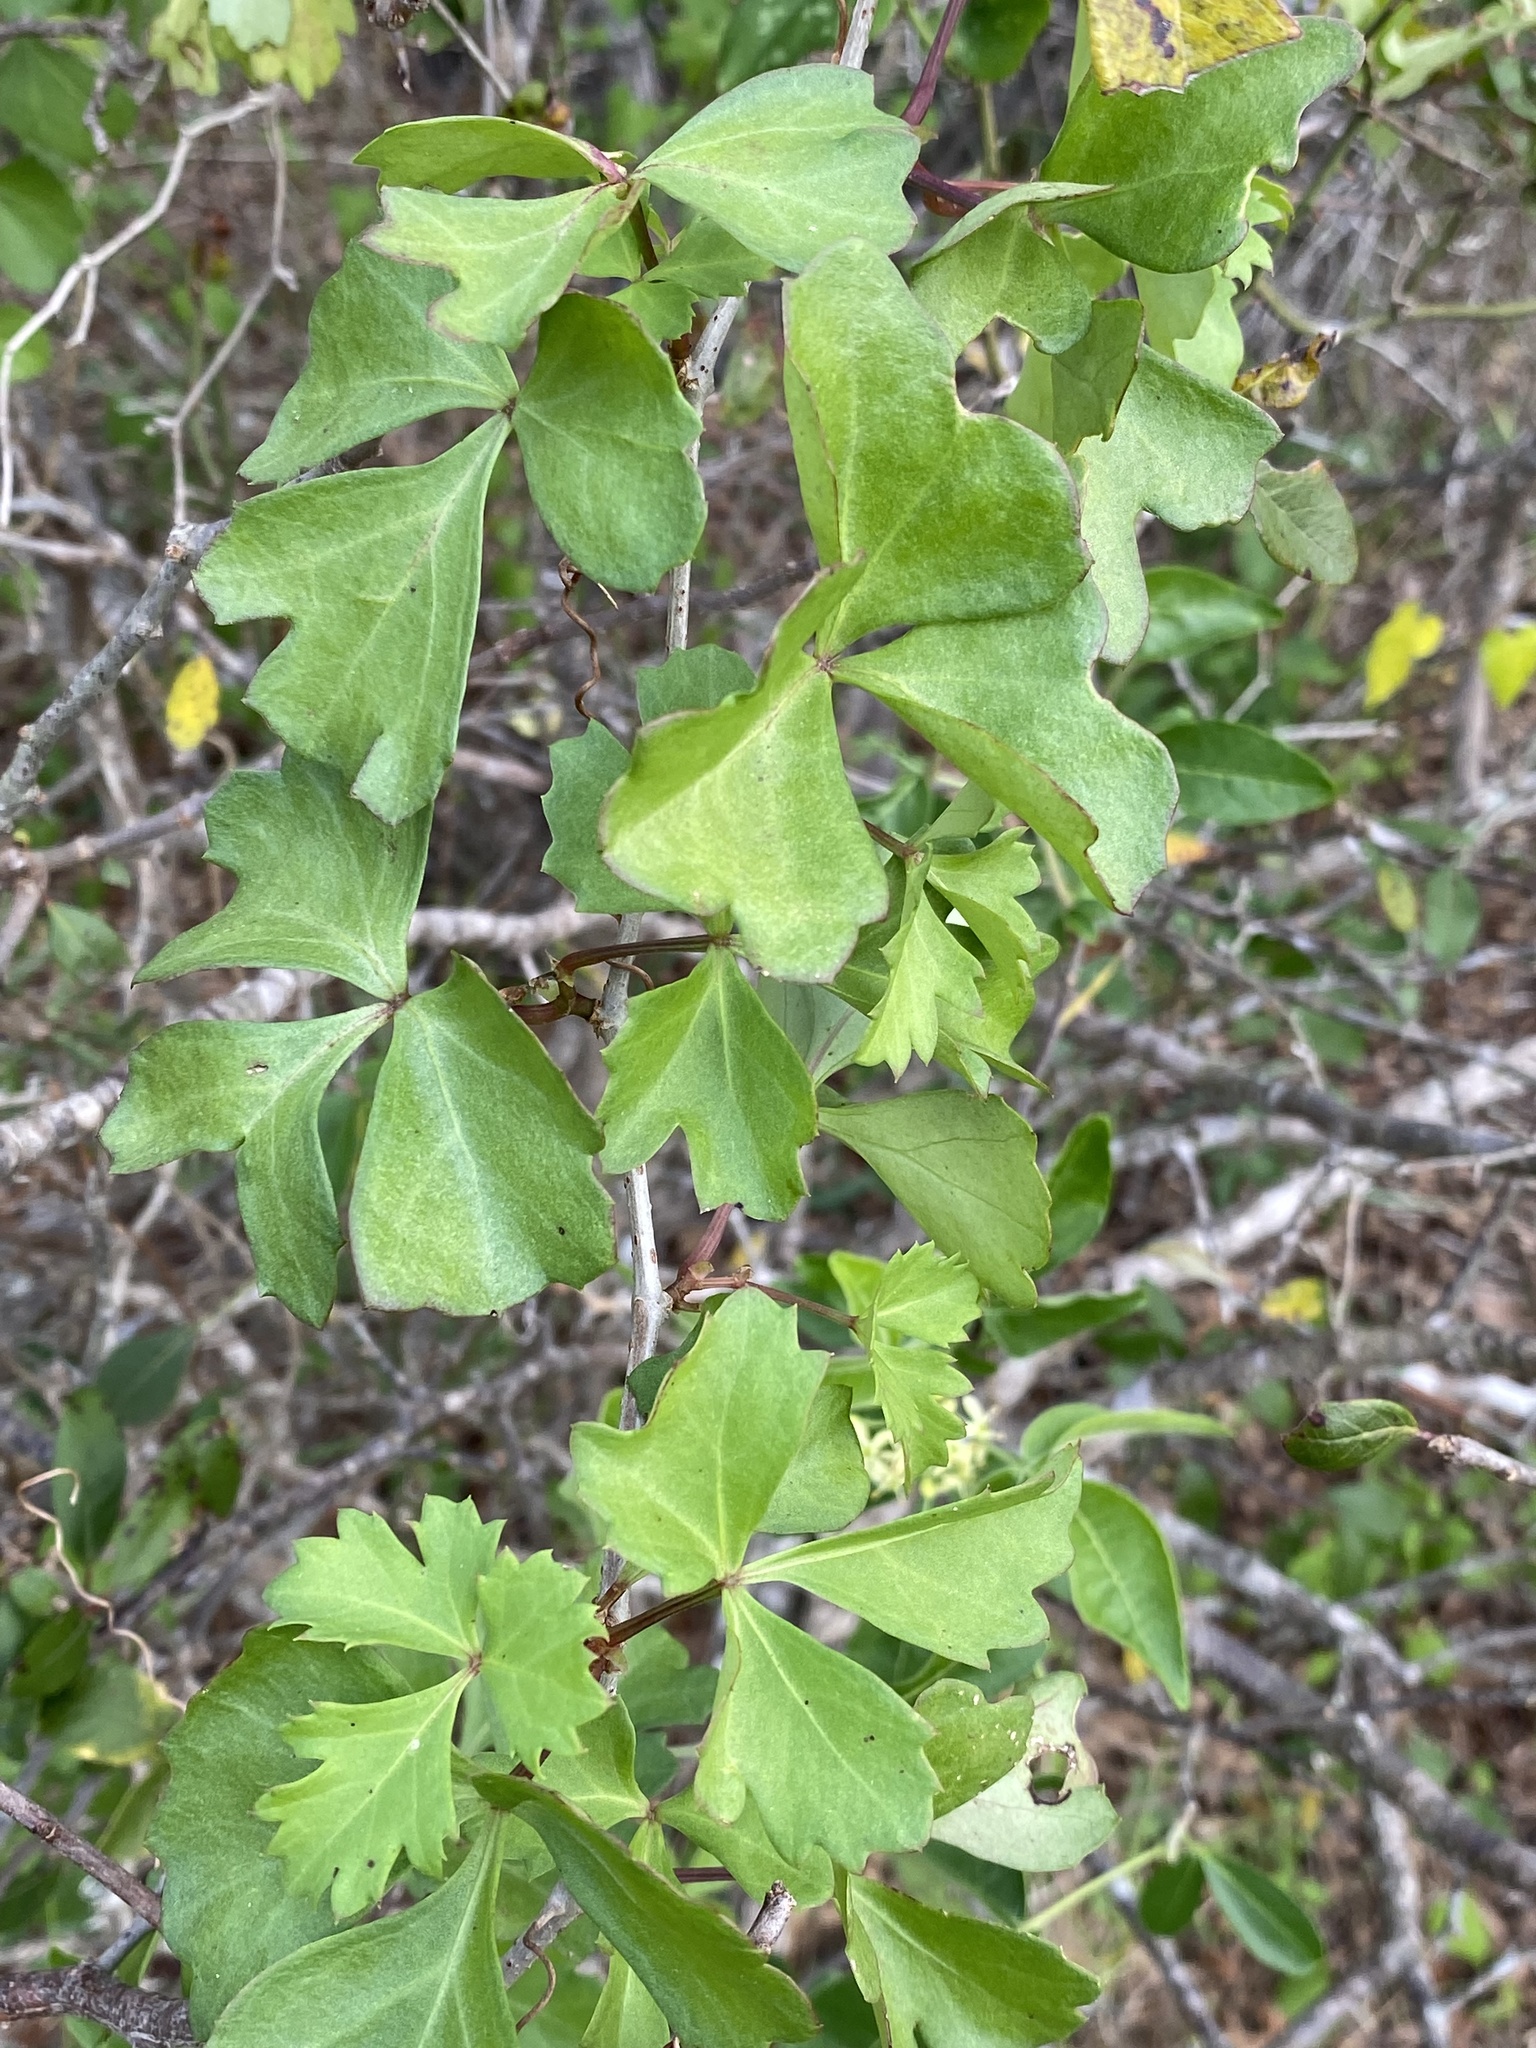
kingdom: Plantae
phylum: Tracheophyta
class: Magnoliopsida
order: Vitales
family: Vitaceae
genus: Cissus
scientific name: Cissus trifoliata
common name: Vine-sorrel
